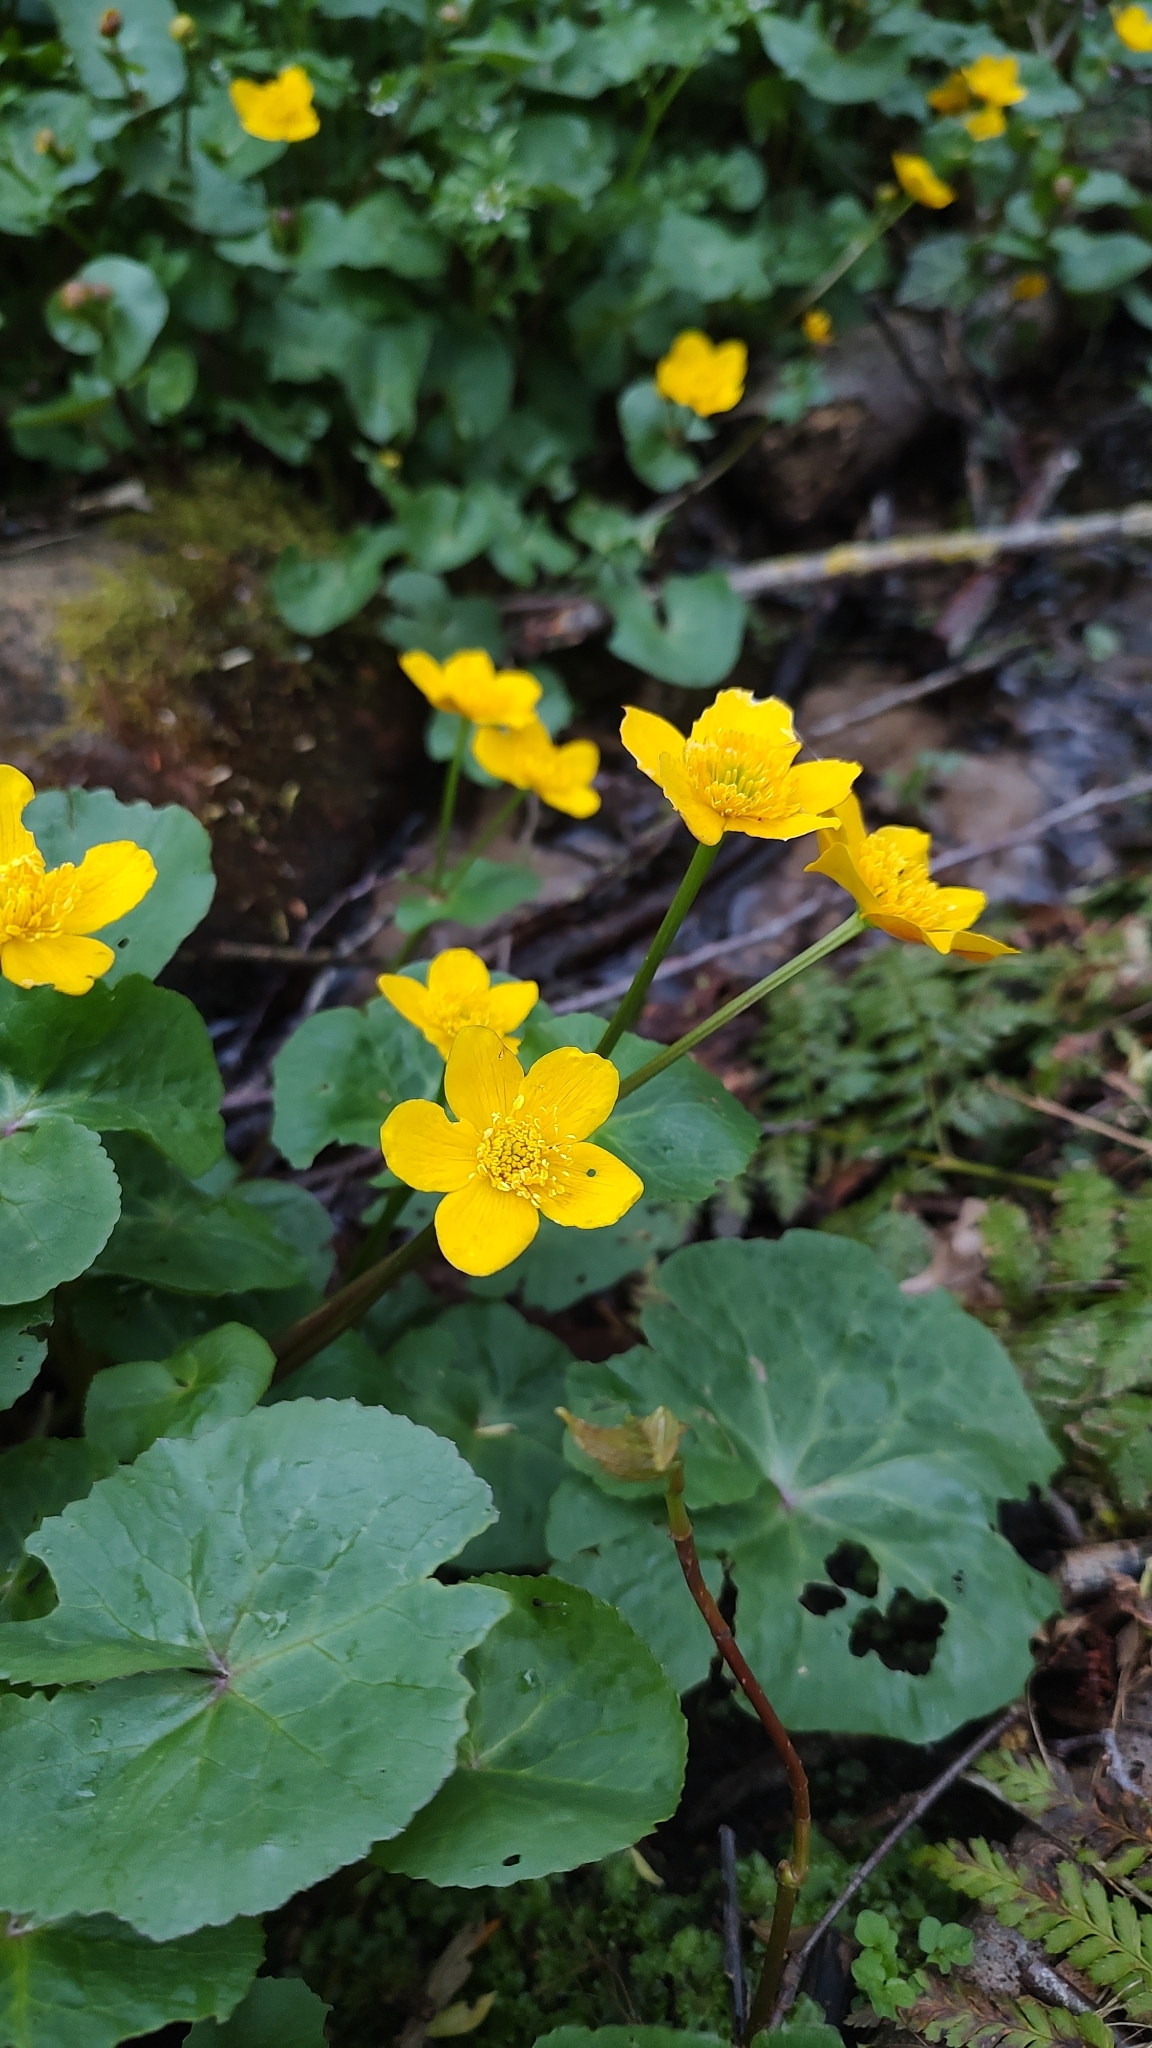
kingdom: Plantae
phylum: Tracheophyta
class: Magnoliopsida
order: Ranunculales
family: Ranunculaceae
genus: Caltha
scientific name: Caltha palustris
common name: Marsh marigold
